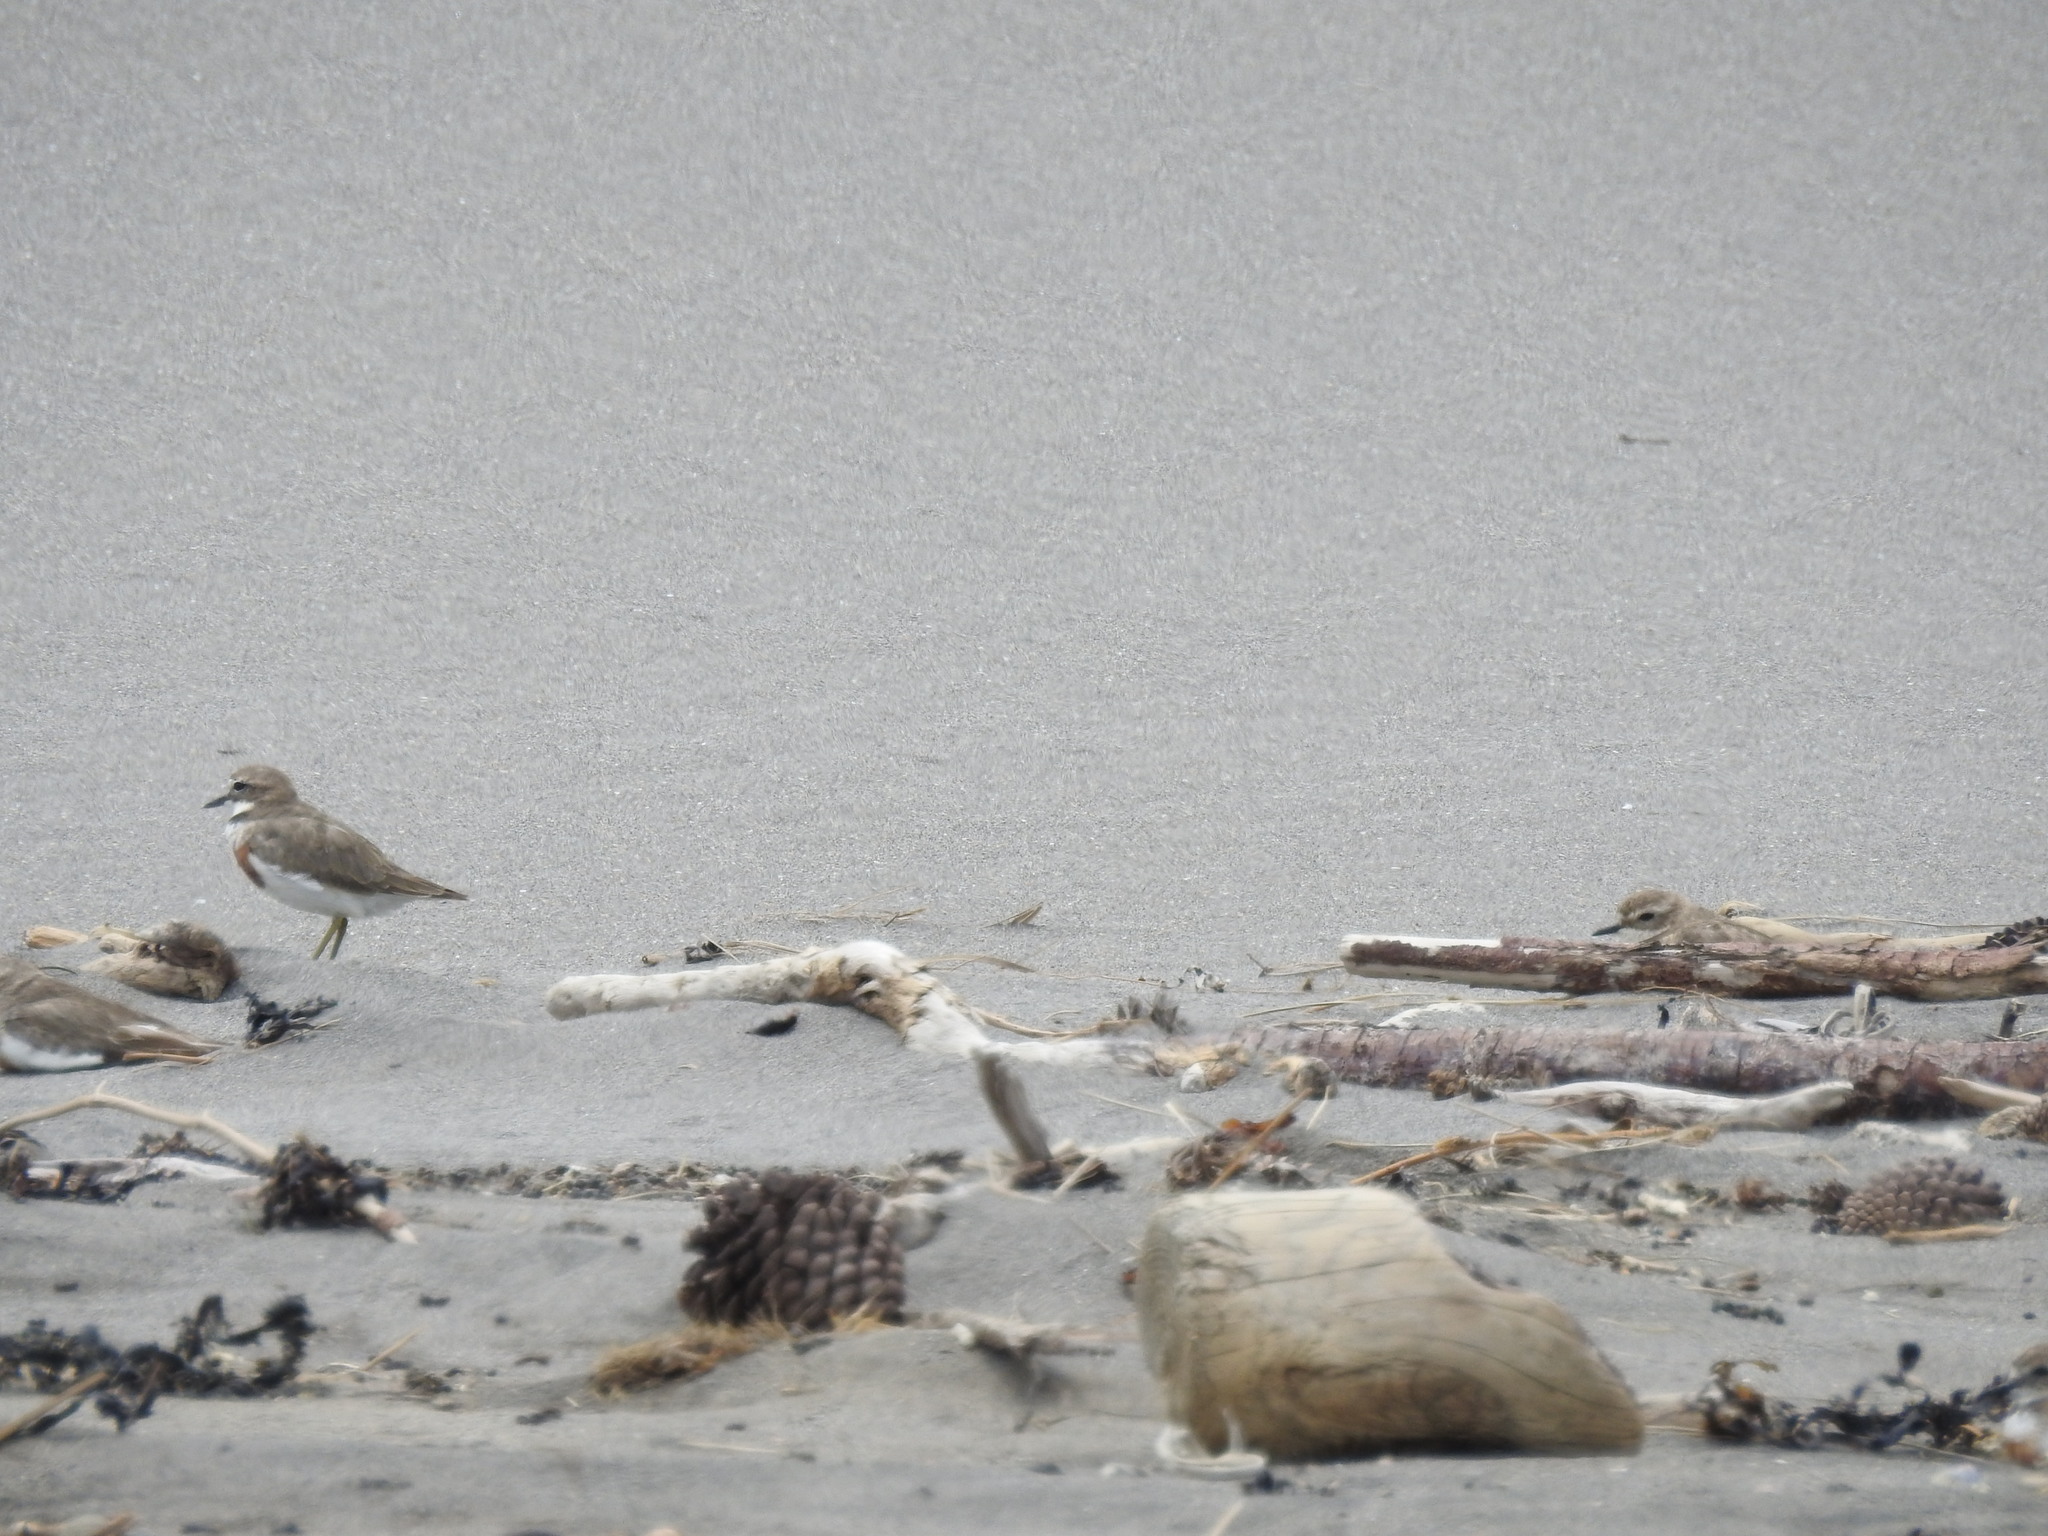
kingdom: Animalia
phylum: Chordata
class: Aves
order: Charadriiformes
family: Charadriidae
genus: Anarhynchus
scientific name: Anarhynchus
